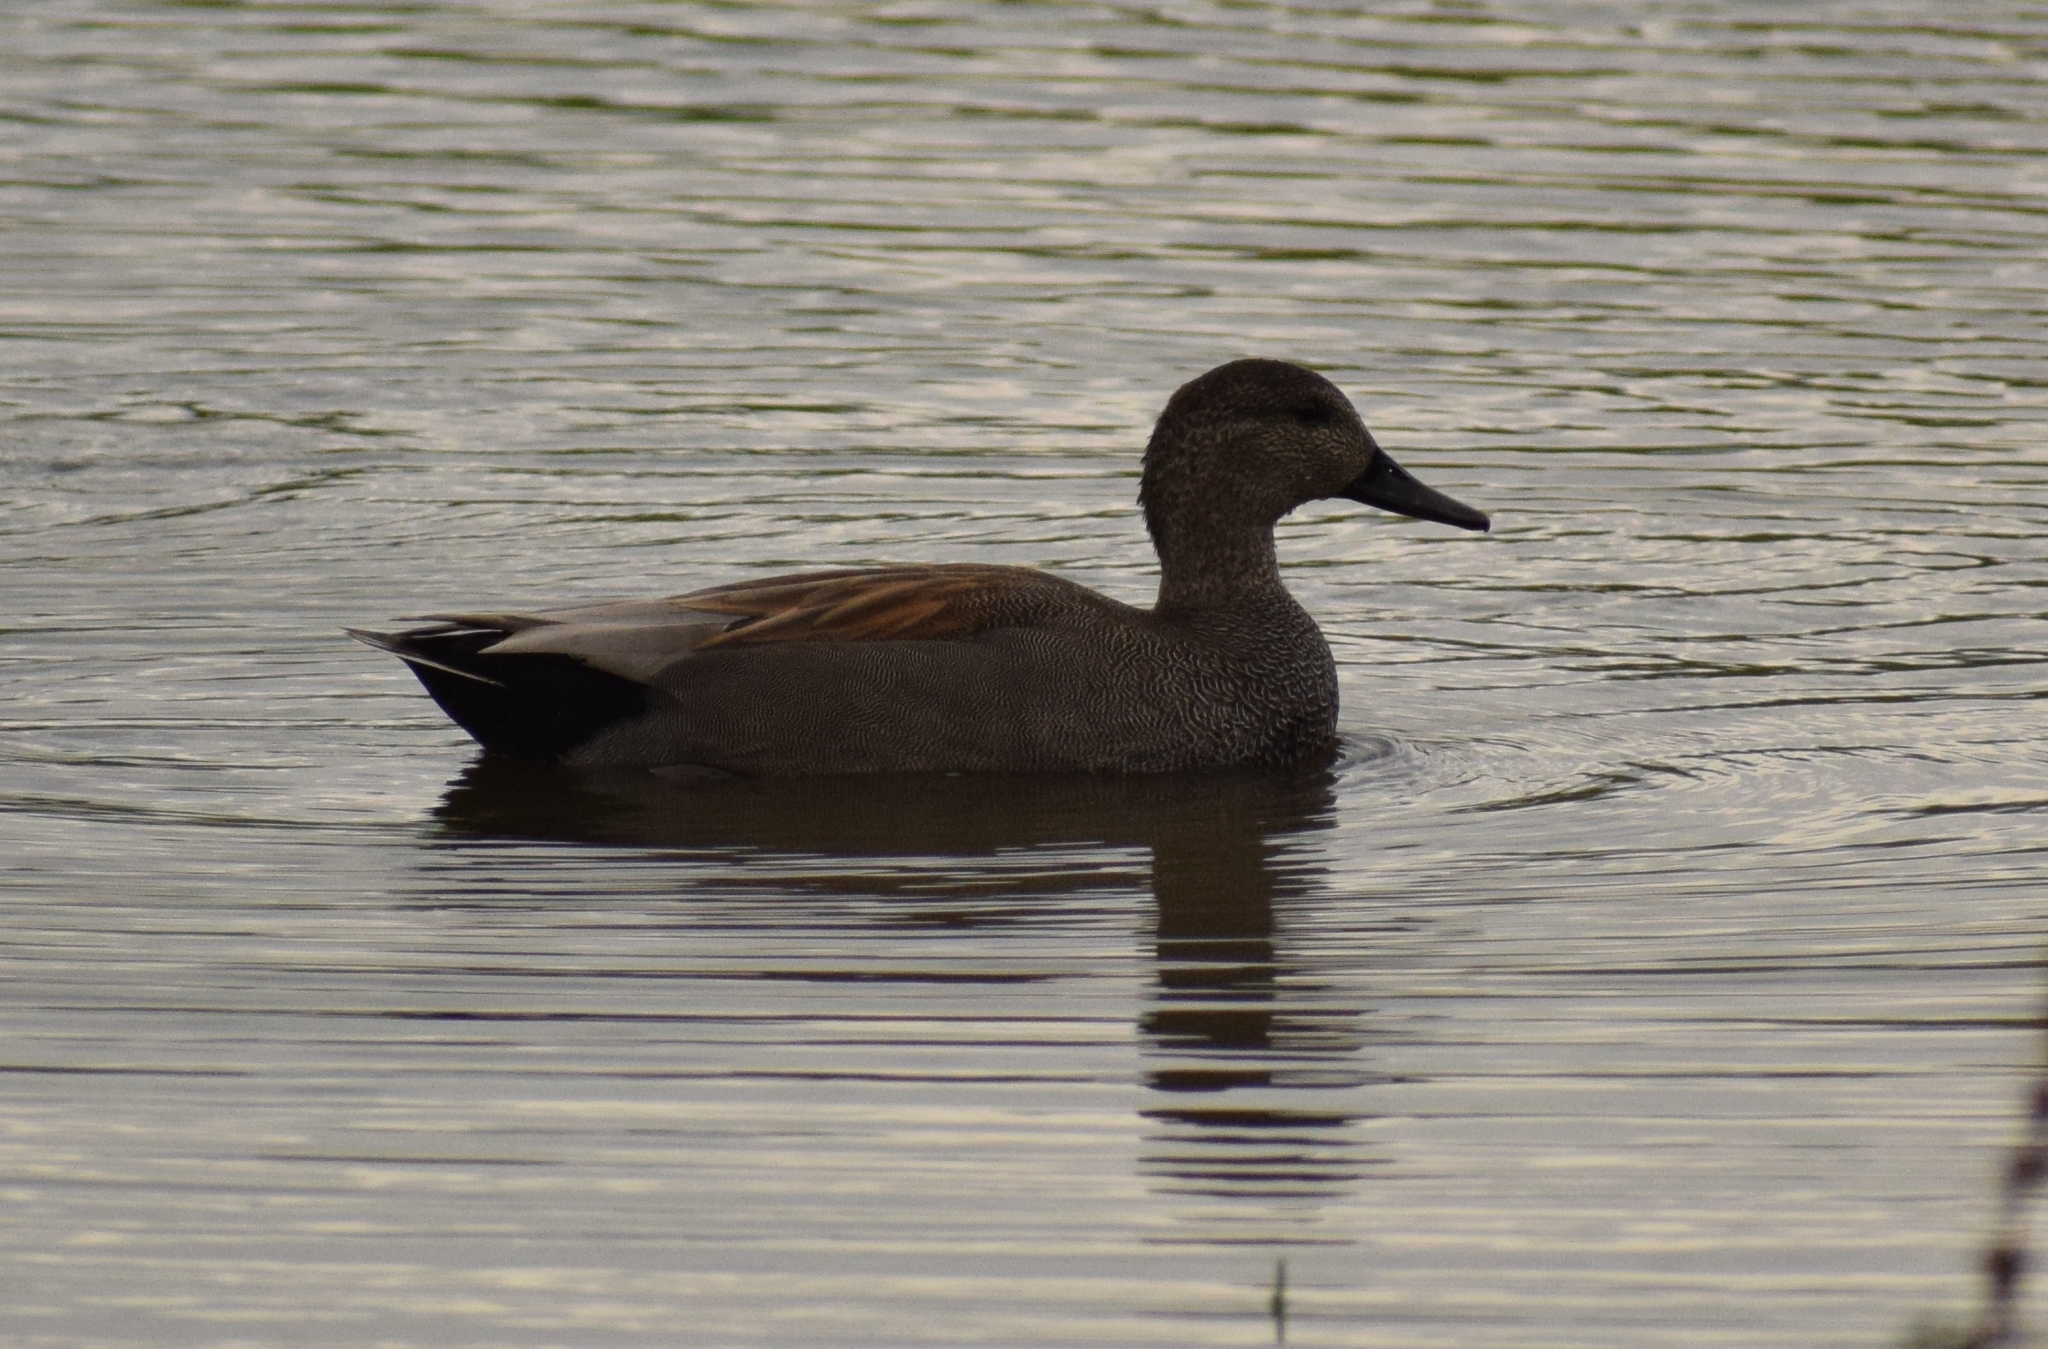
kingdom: Animalia
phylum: Chordata
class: Aves
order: Anseriformes
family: Anatidae
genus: Mareca
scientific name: Mareca strepera
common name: Gadwall
